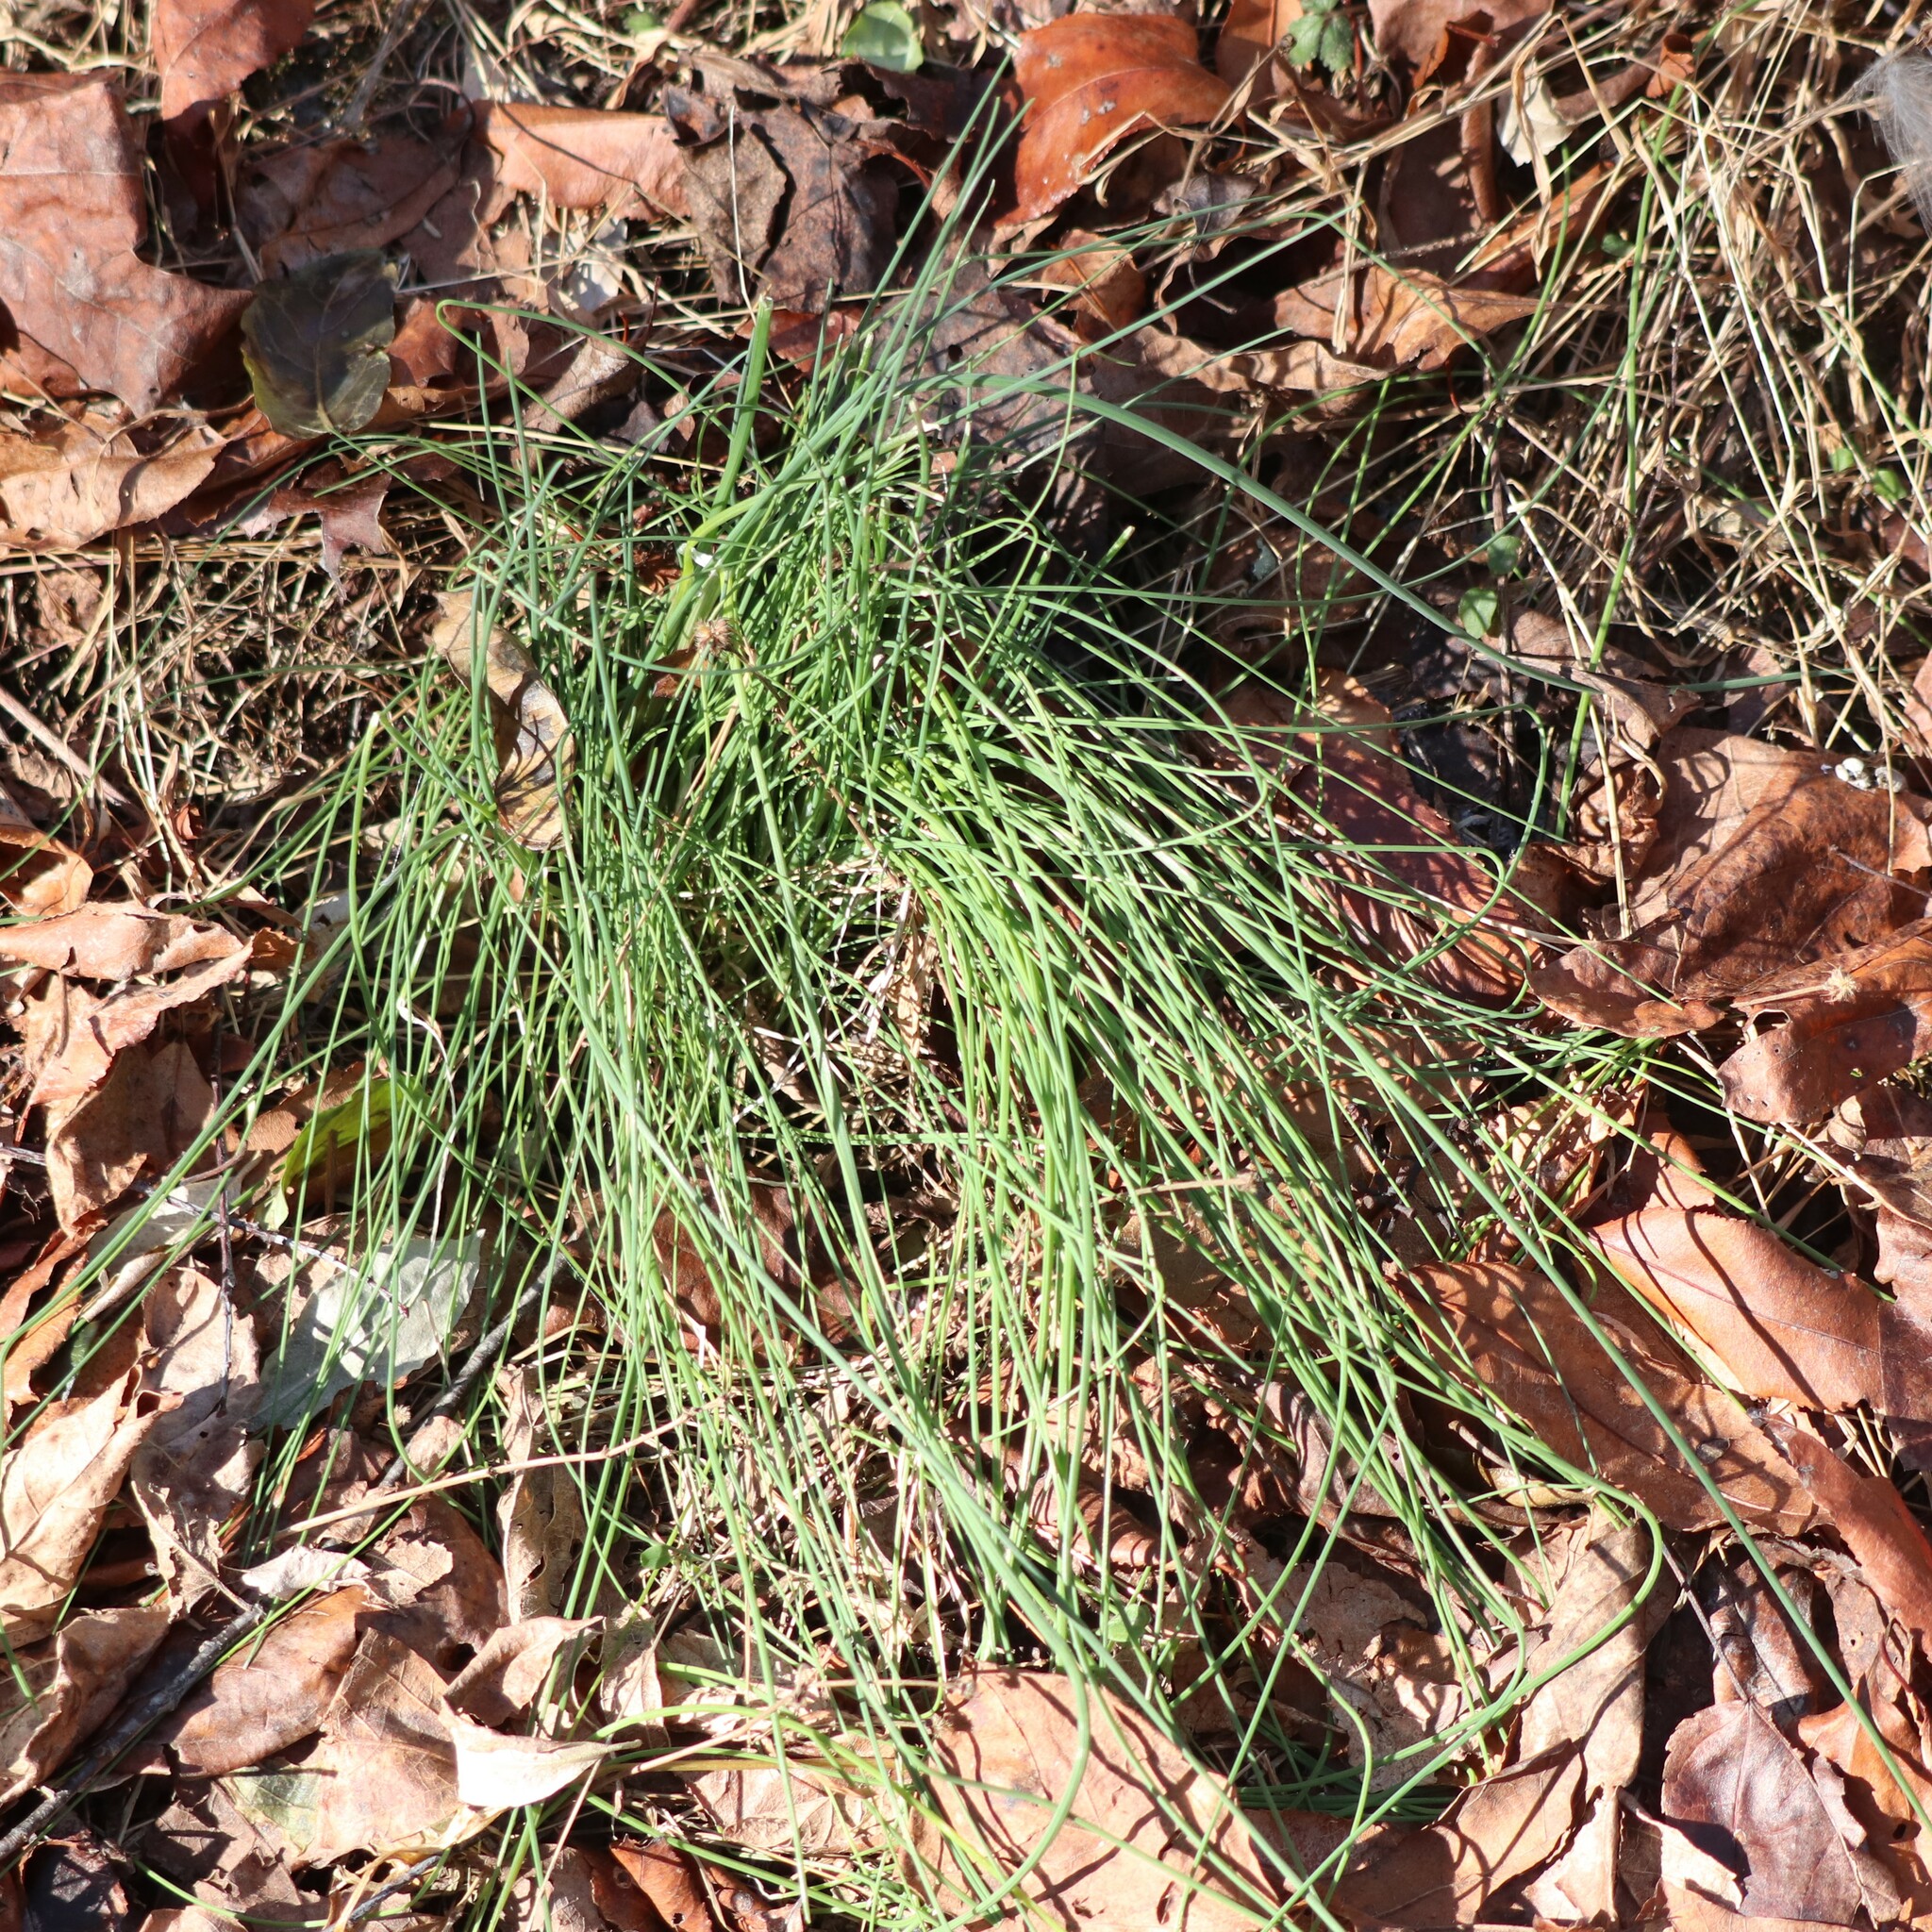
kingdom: Plantae
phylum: Tracheophyta
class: Liliopsida
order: Asparagales
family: Amaryllidaceae
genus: Allium
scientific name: Allium vineale
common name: Crow garlic
